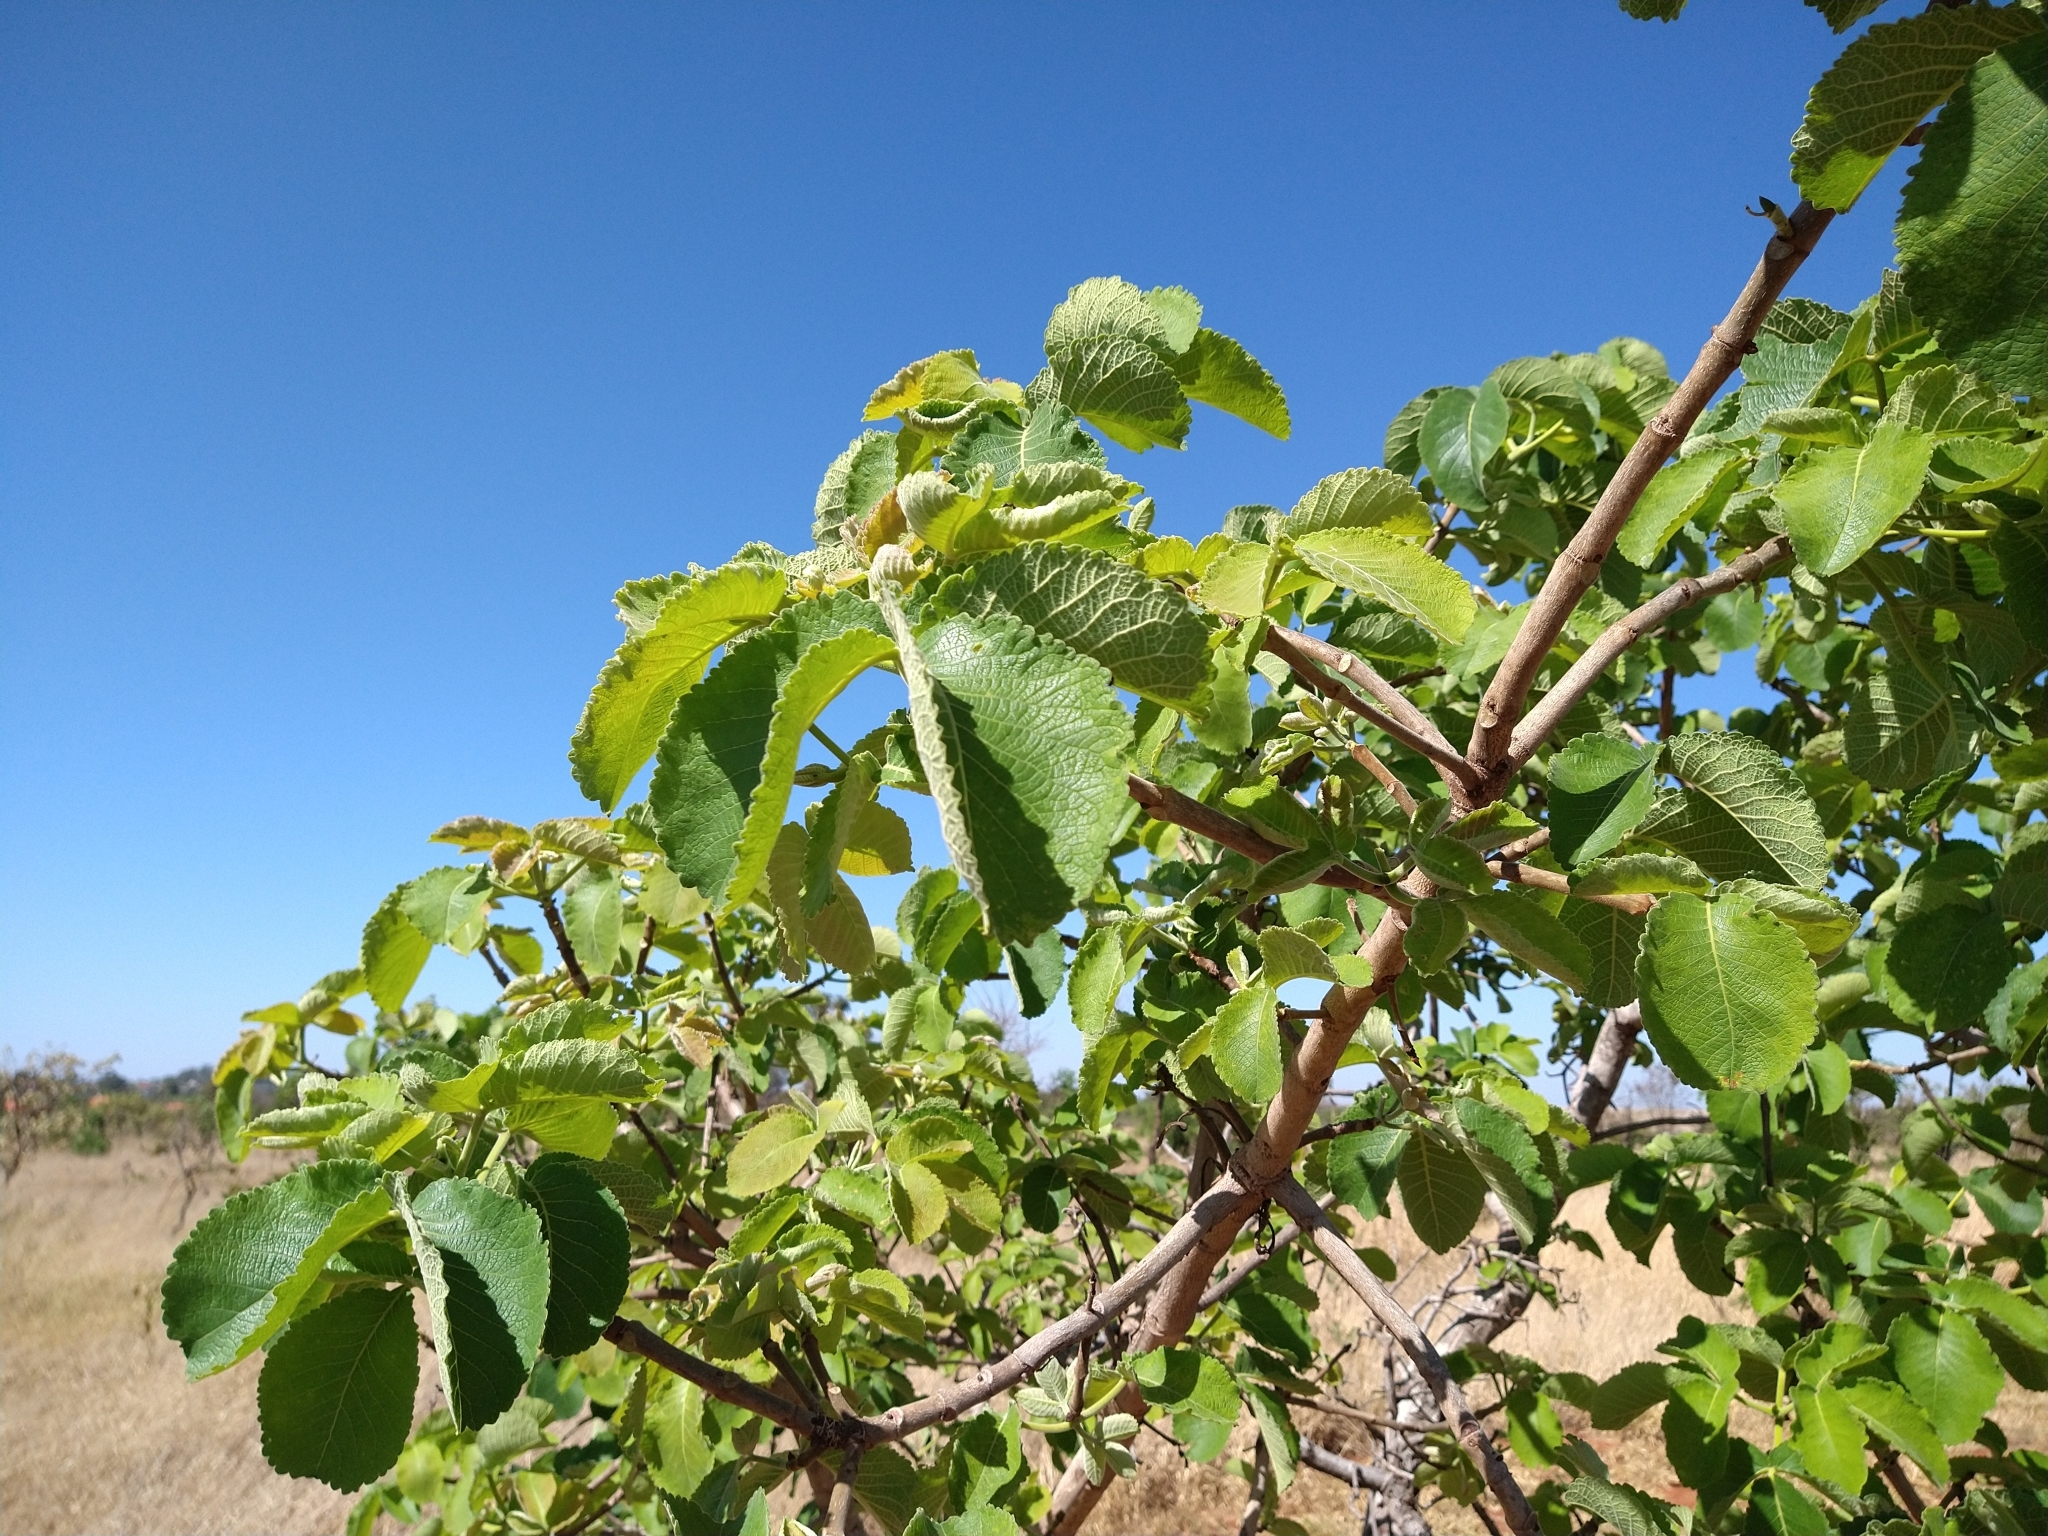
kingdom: Plantae
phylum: Tracheophyta
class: Magnoliopsida
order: Malpighiales
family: Caryocaraceae
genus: Caryocar
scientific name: Caryocar brasiliense
